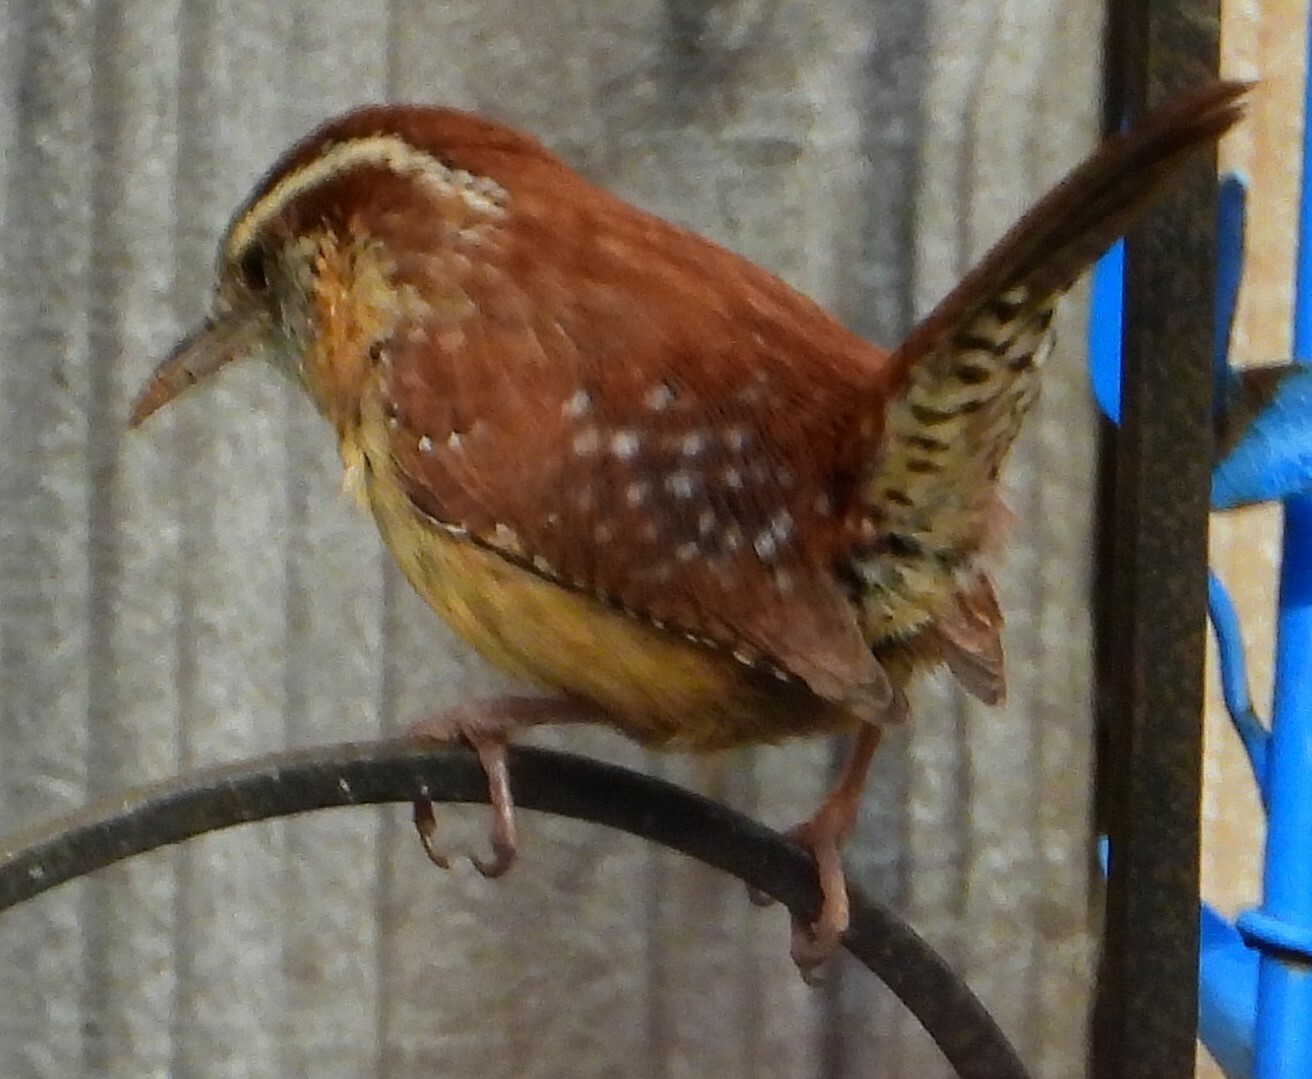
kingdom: Animalia
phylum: Chordata
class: Aves
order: Passeriformes
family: Troglodytidae
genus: Thryothorus
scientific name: Thryothorus ludovicianus
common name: Carolina wren
